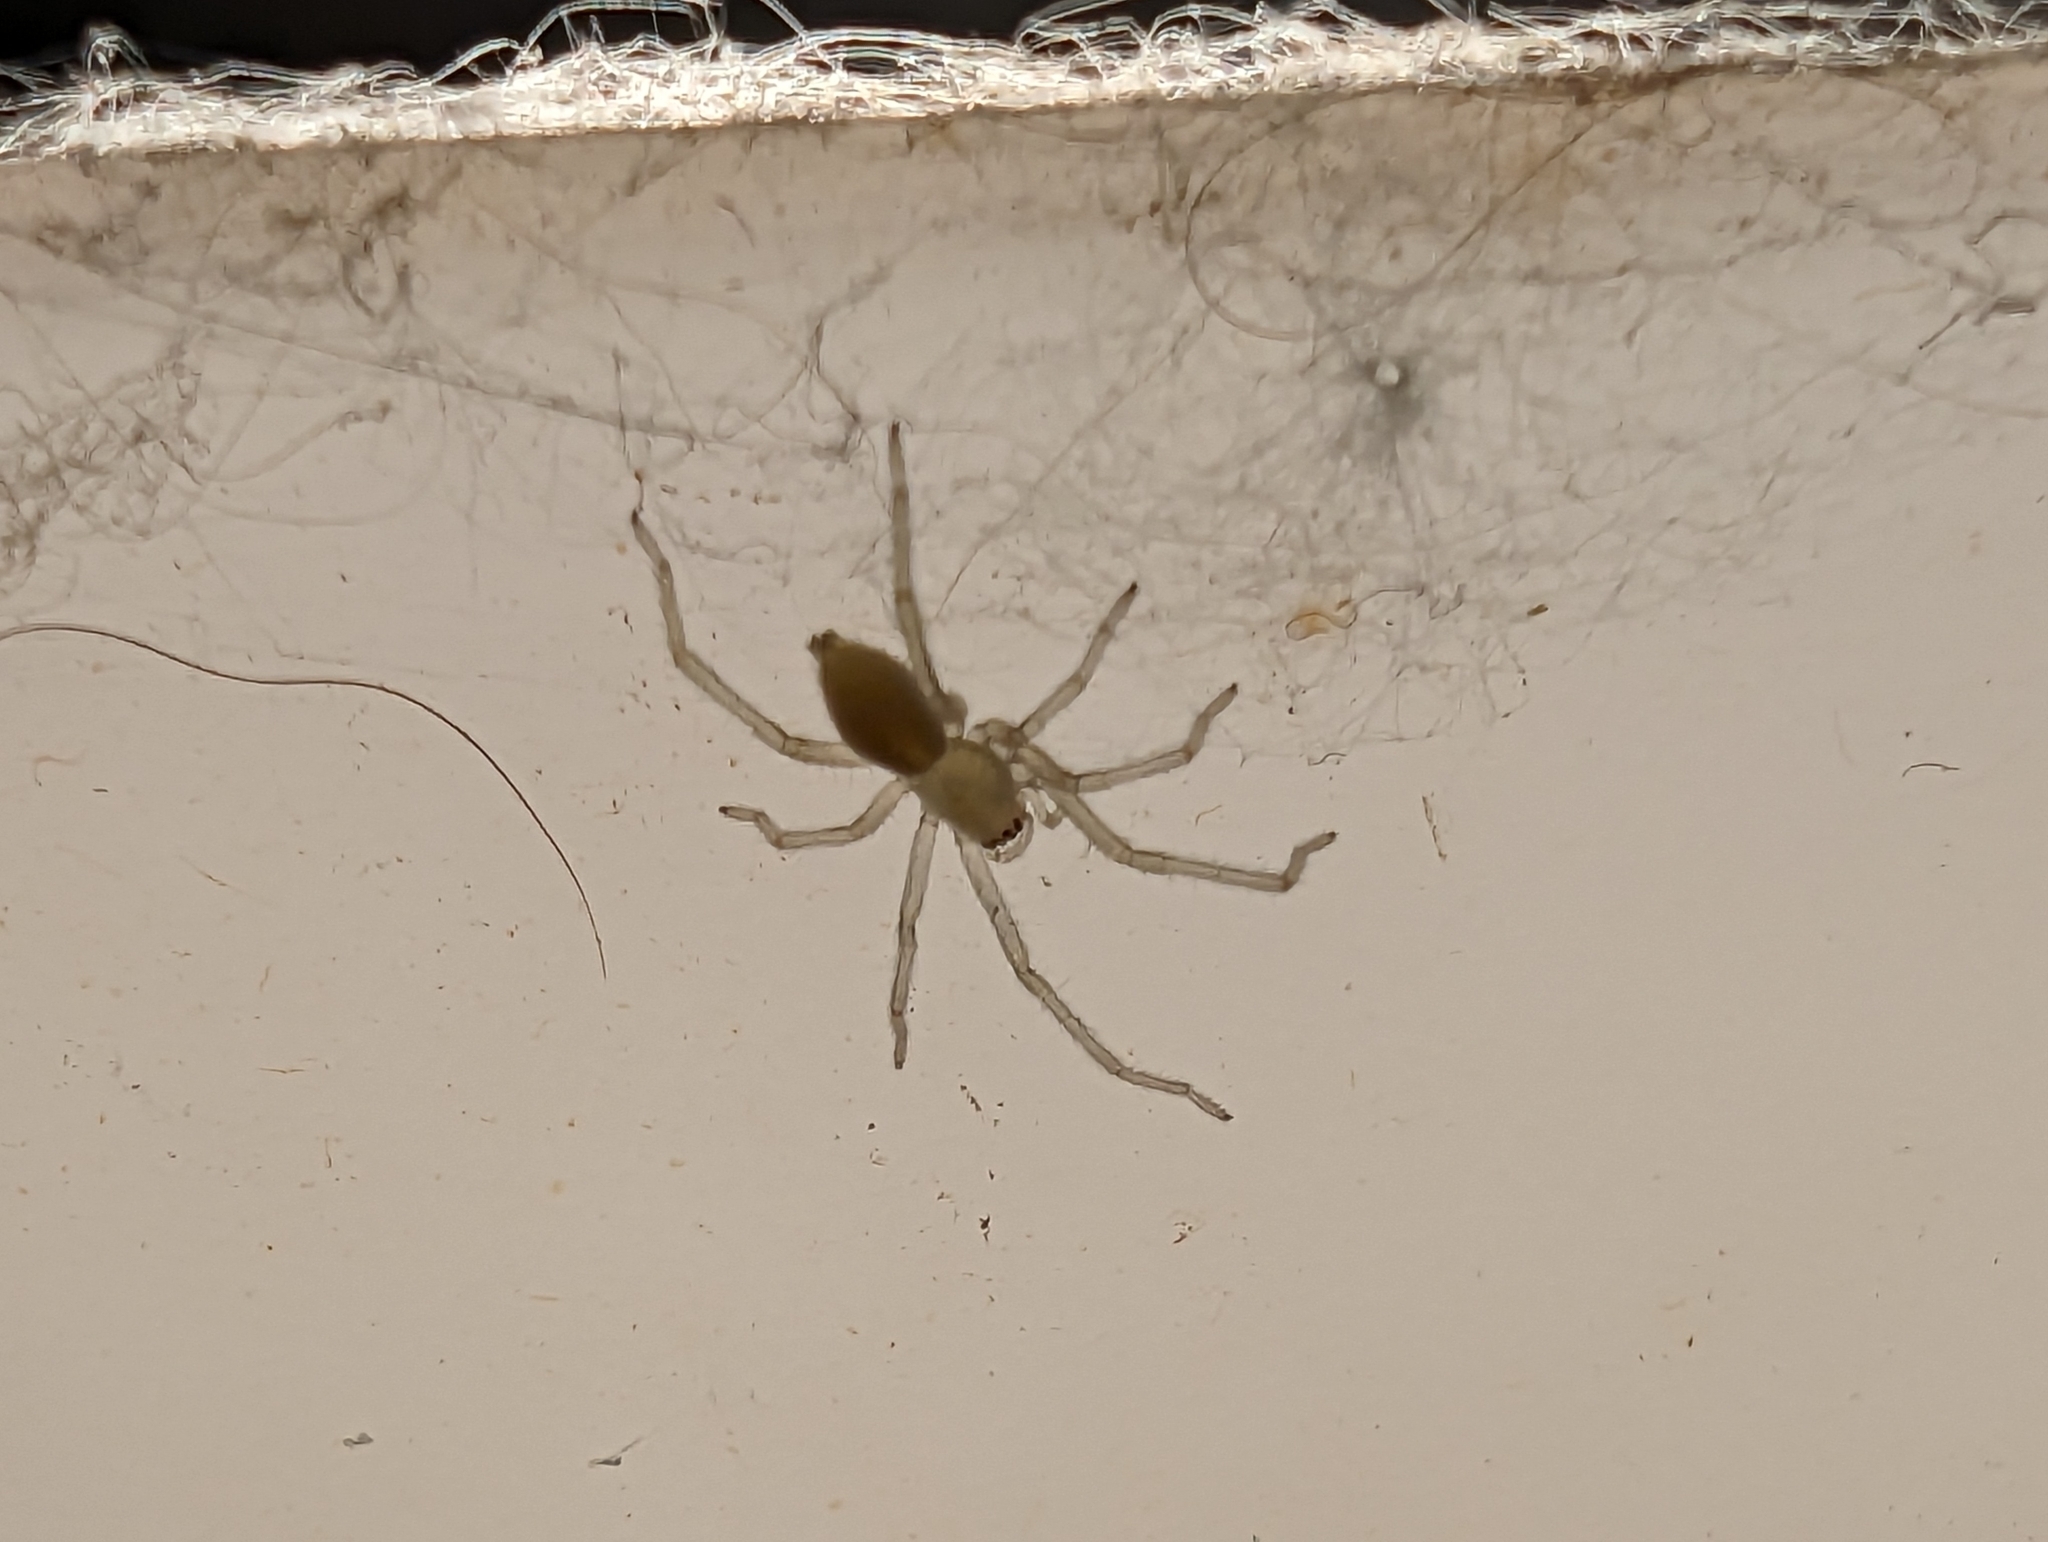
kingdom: Animalia
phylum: Arthropoda
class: Arachnida
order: Araneae
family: Cheiracanthiidae
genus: Cheiracanthium
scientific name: Cheiracanthium mildei
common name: Northern yellow sac spider
